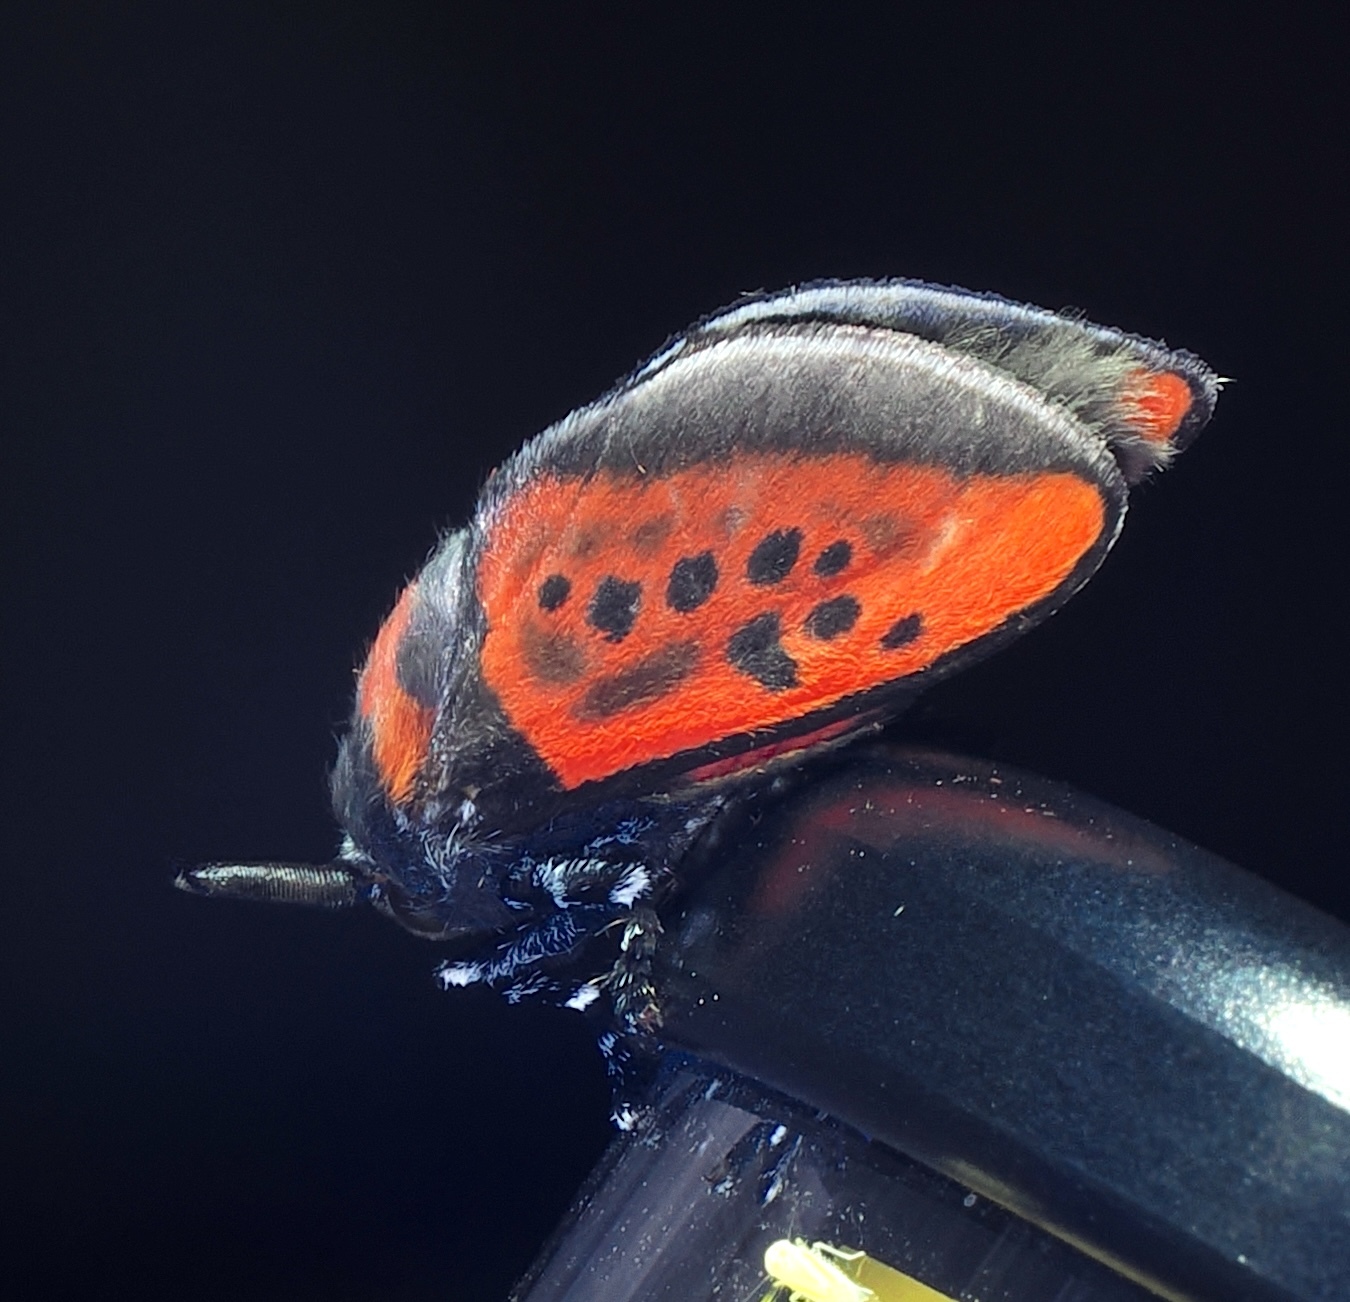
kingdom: Animalia
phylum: Arthropoda
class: Insecta
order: Lepidoptera
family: Megalopygidae
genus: Langucys
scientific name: Langucys nigropuncta
